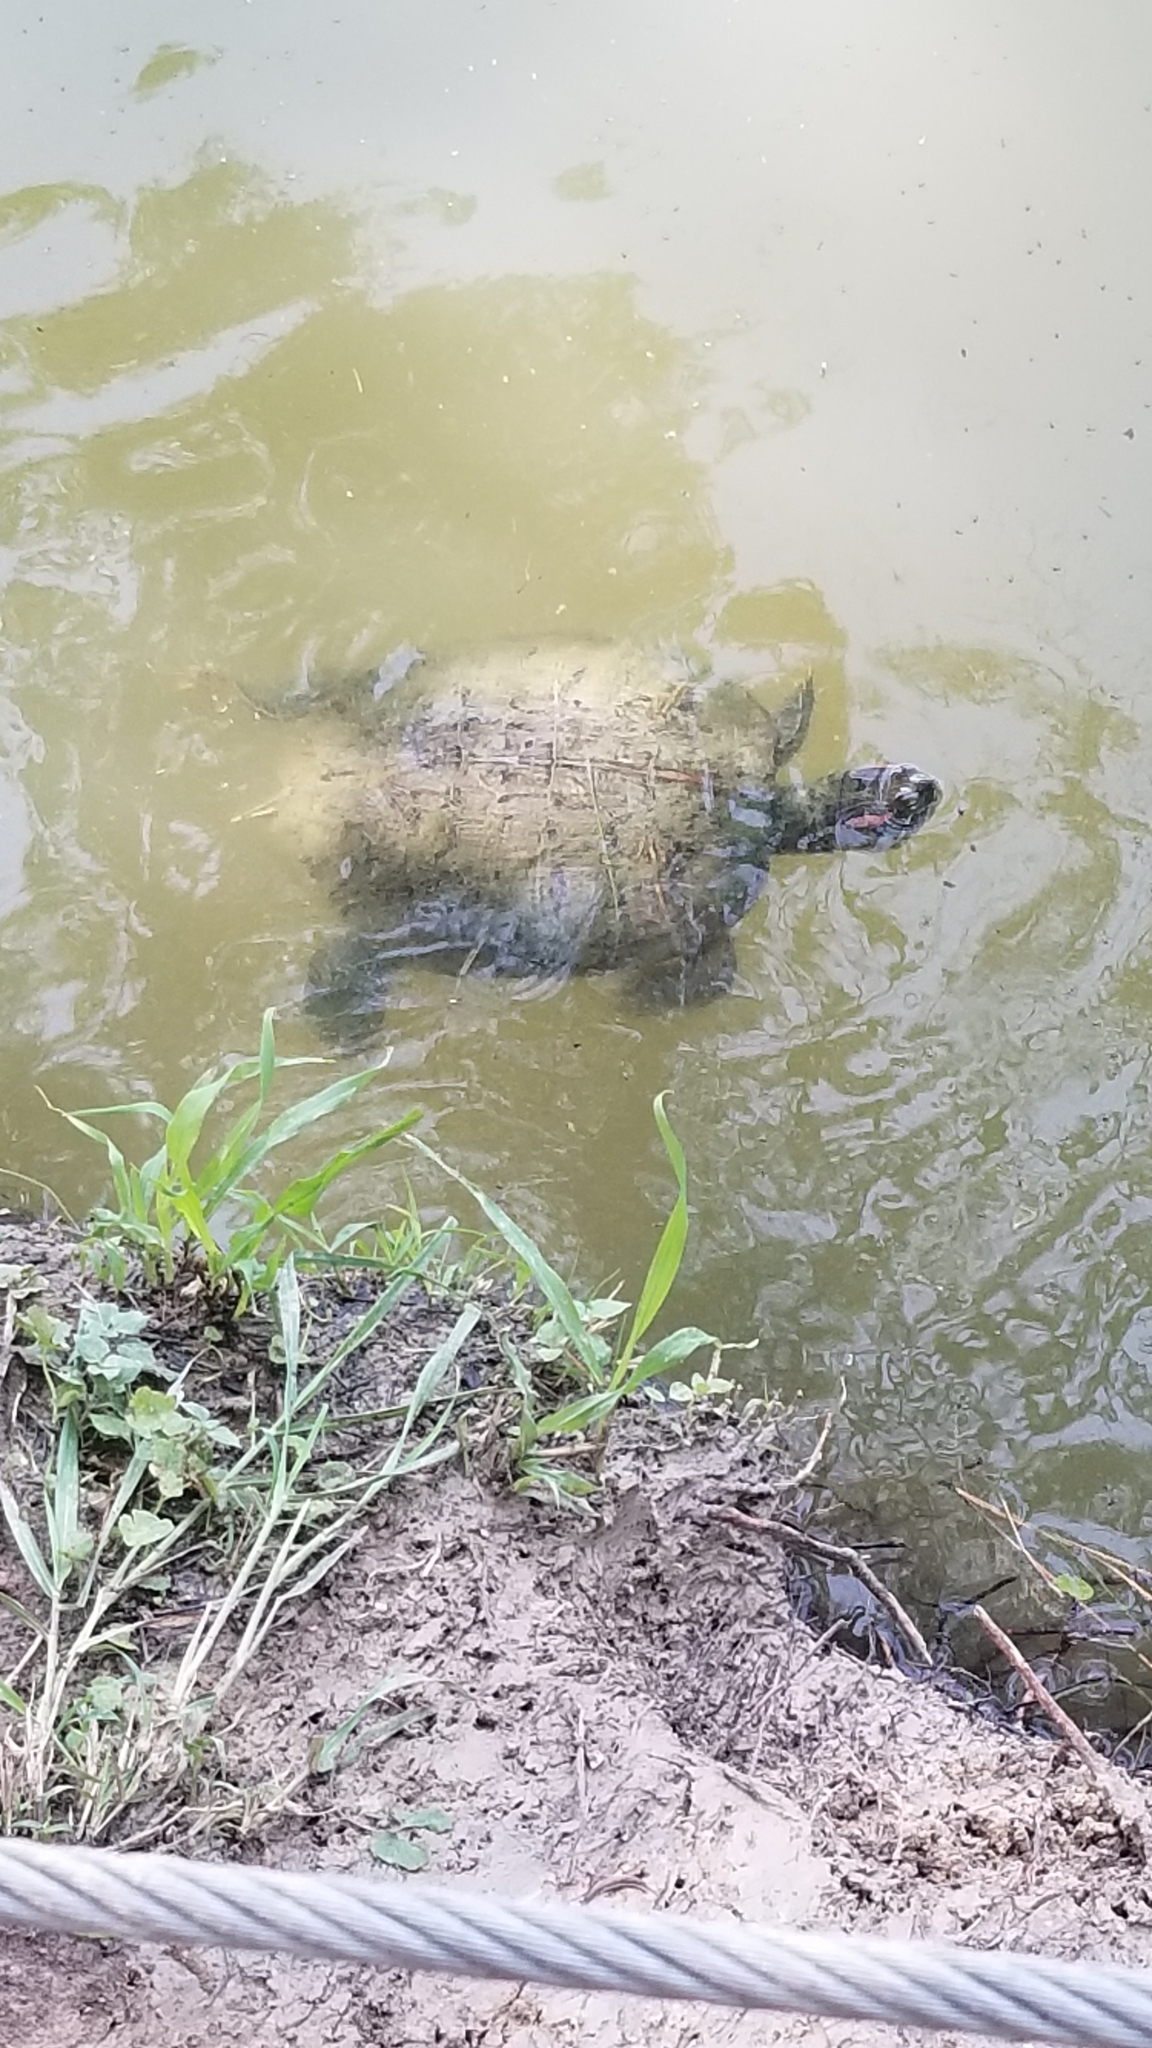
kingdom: Animalia
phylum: Chordata
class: Testudines
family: Emydidae
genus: Trachemys
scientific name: Trachemys scripta
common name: Slider
